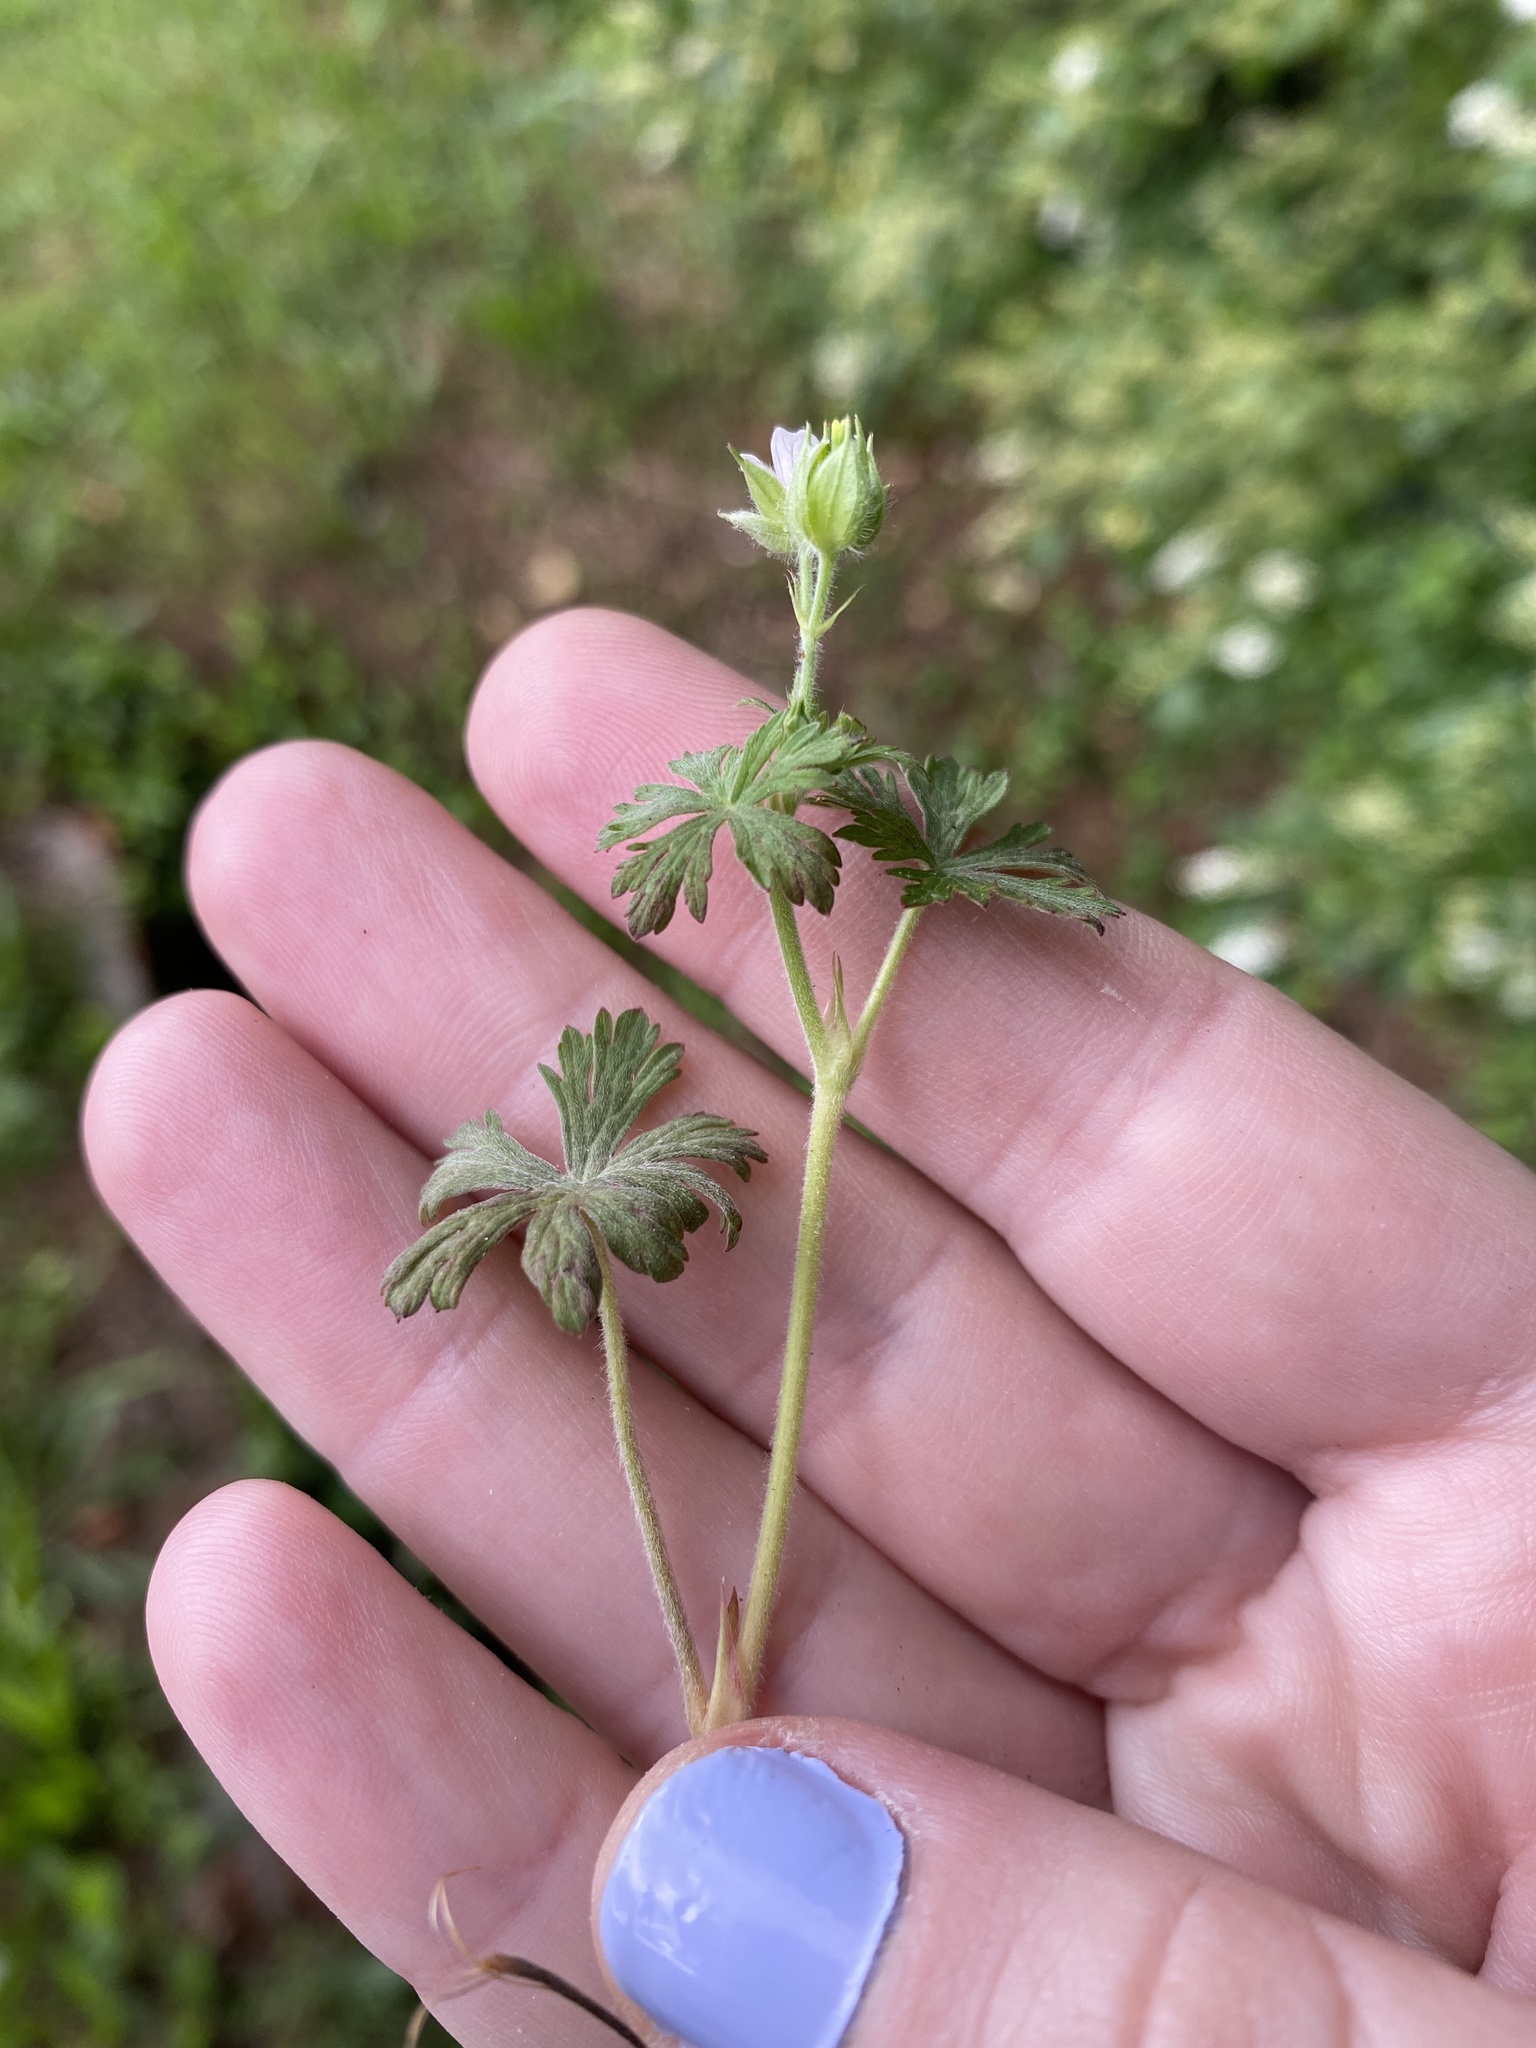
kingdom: Plantae
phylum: Tracheophyta
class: Magnoliopsida
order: Geraniales
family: Geraniaceae
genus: Geranium
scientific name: Geranium carolinianum
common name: Carolina crane's-bill
